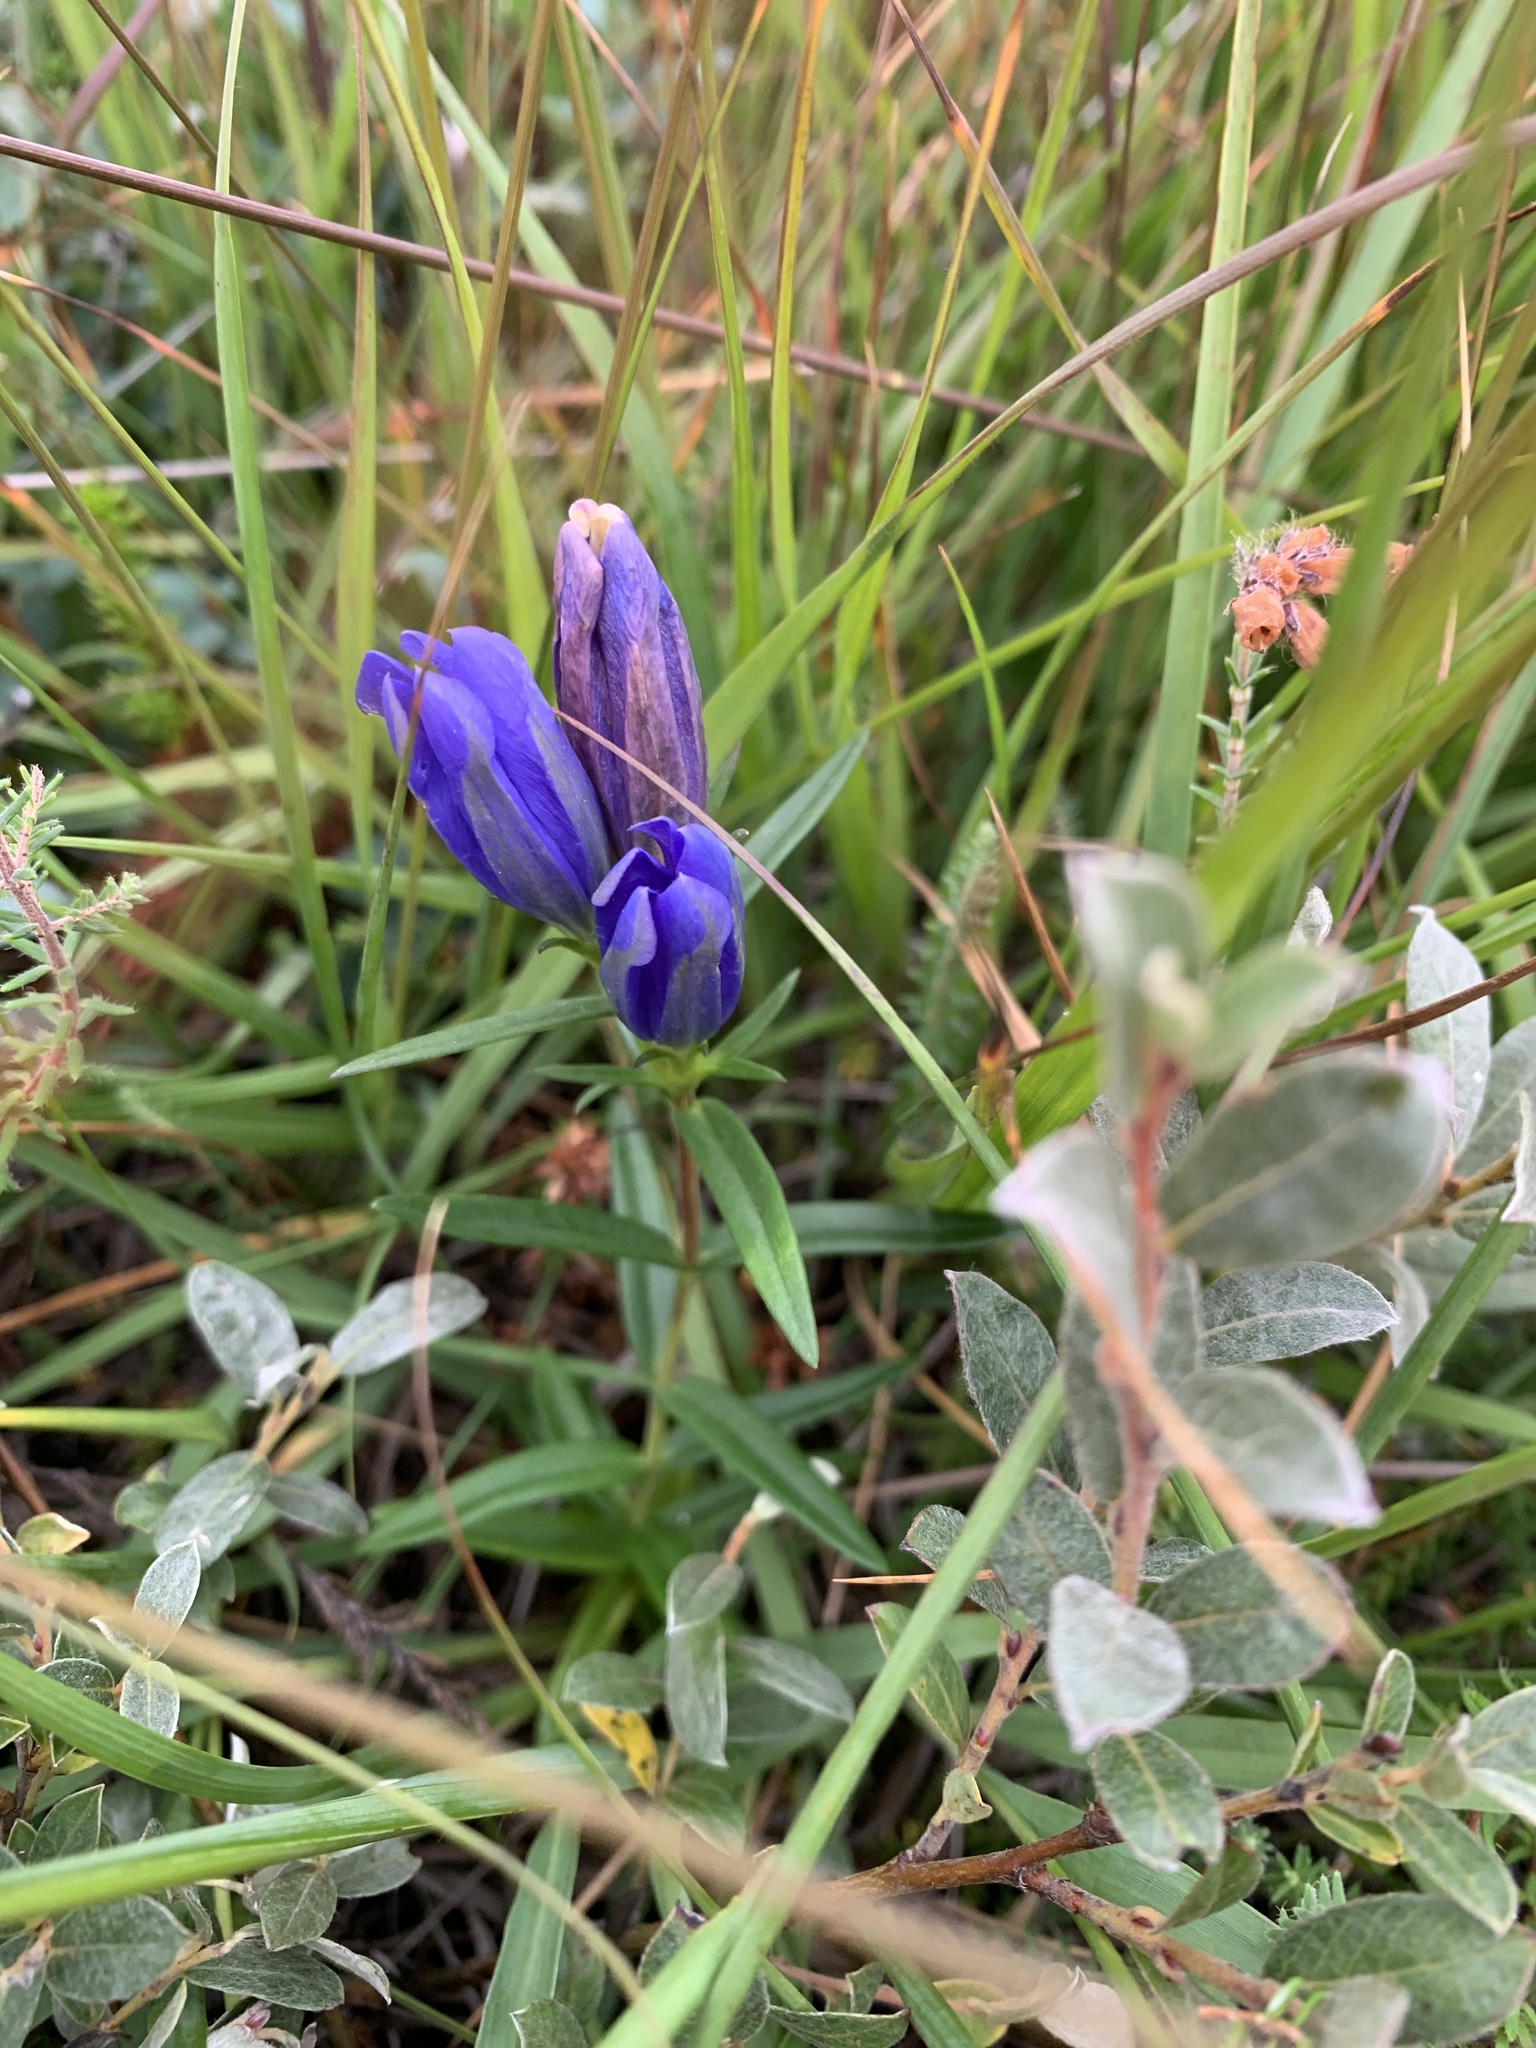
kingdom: Plantae
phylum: Tracheophyta
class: Magnoliopsida
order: Gentianales
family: Gentianaceae
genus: Gentiana
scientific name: Gentiana pneumonanthe
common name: Marsh gentian
